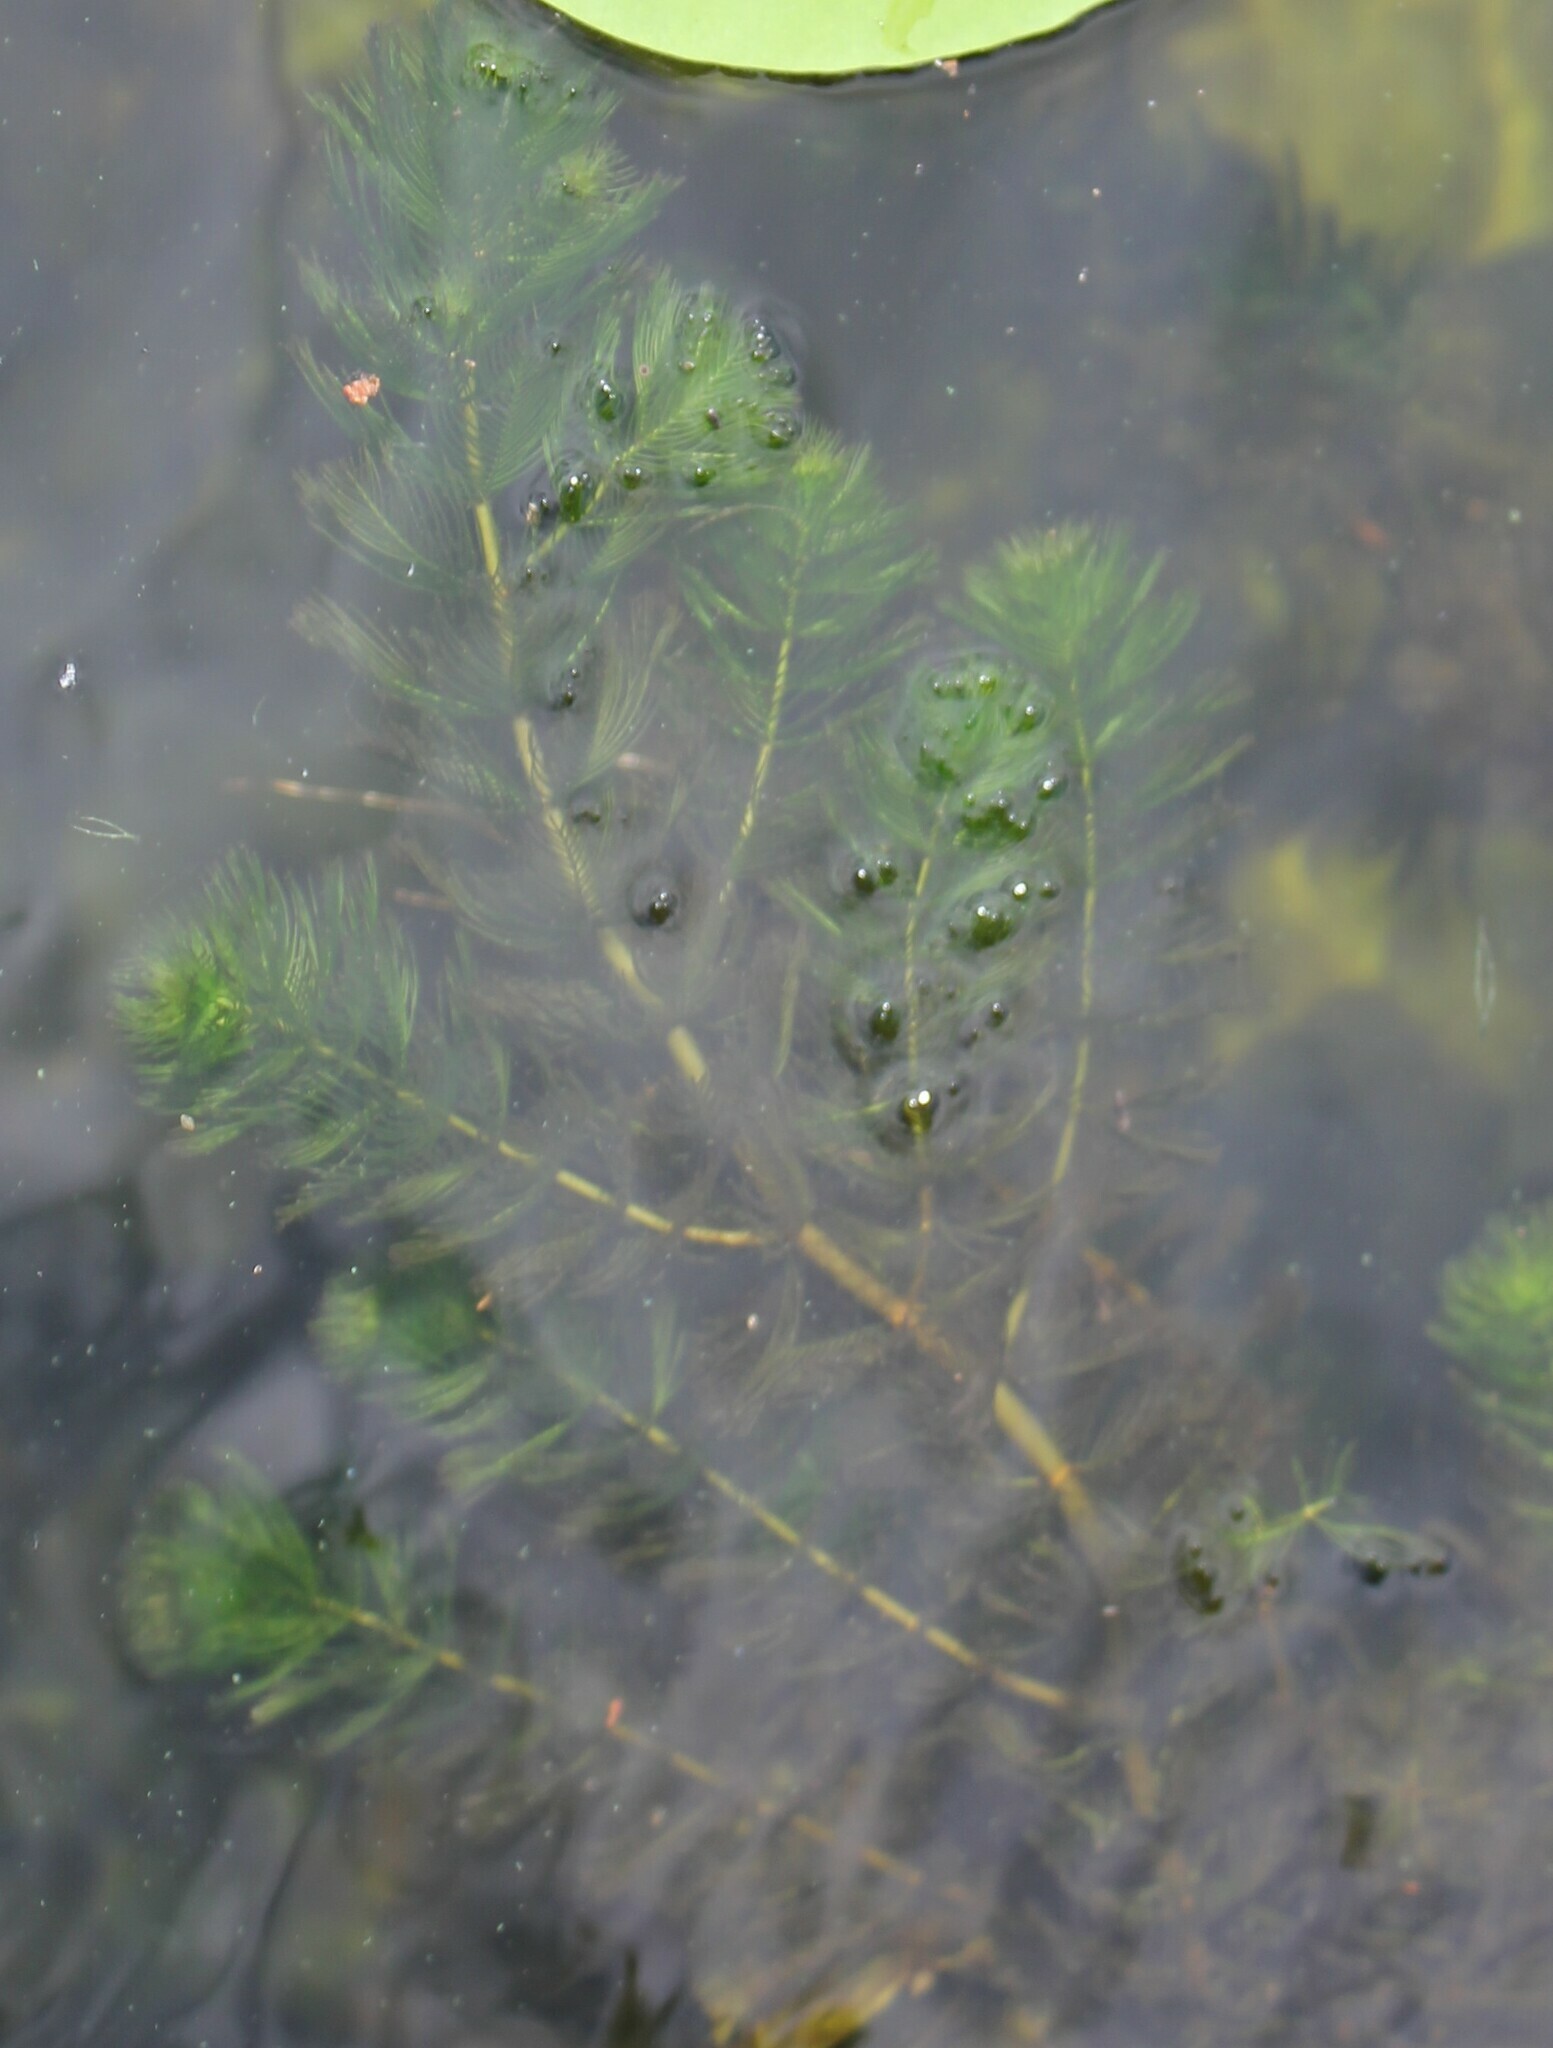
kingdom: Plantae
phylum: Tracheophyta
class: Magnoliopsida
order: Saxifragales
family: Haloragaceae
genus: Myriophyllum
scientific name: Myriophyllum spicatum
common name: Spiked water-milfoil
